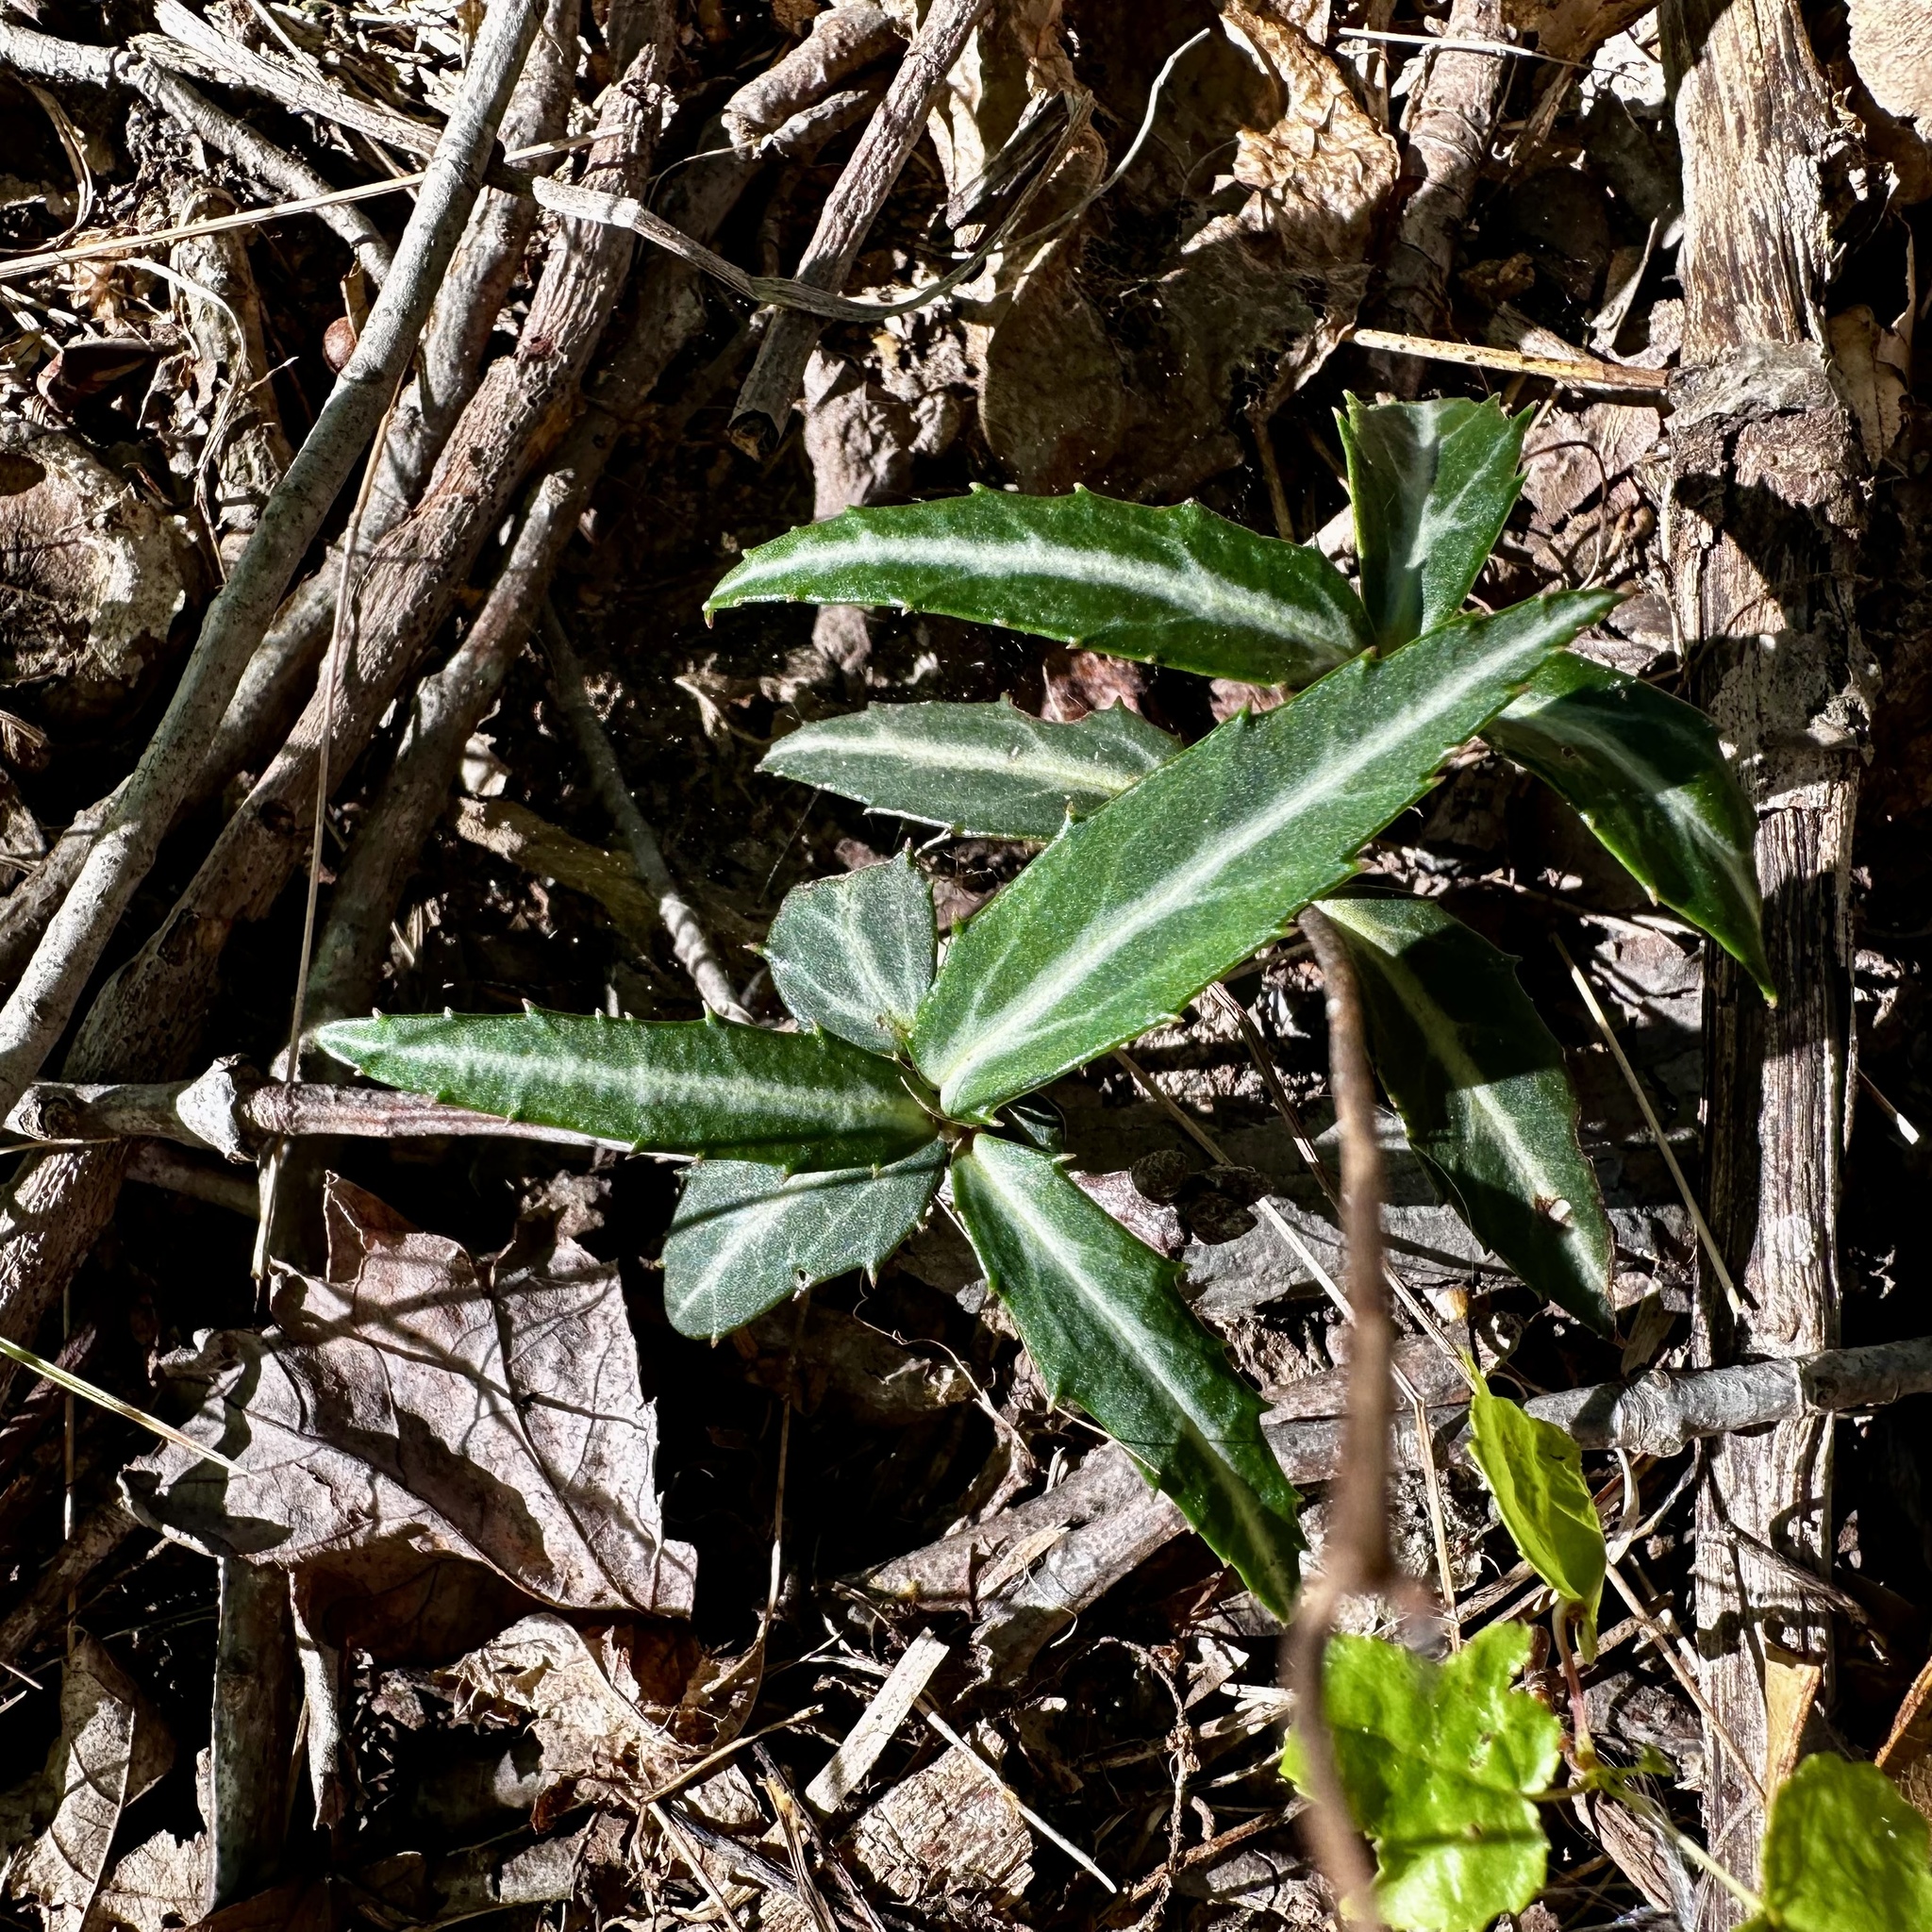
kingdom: Plantae
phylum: Tracheophyta
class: Magnoliopsida
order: Ericales
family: Ericaceae
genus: Chimaphila
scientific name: Chimaphila maculata
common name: Spotted pipsissewa
